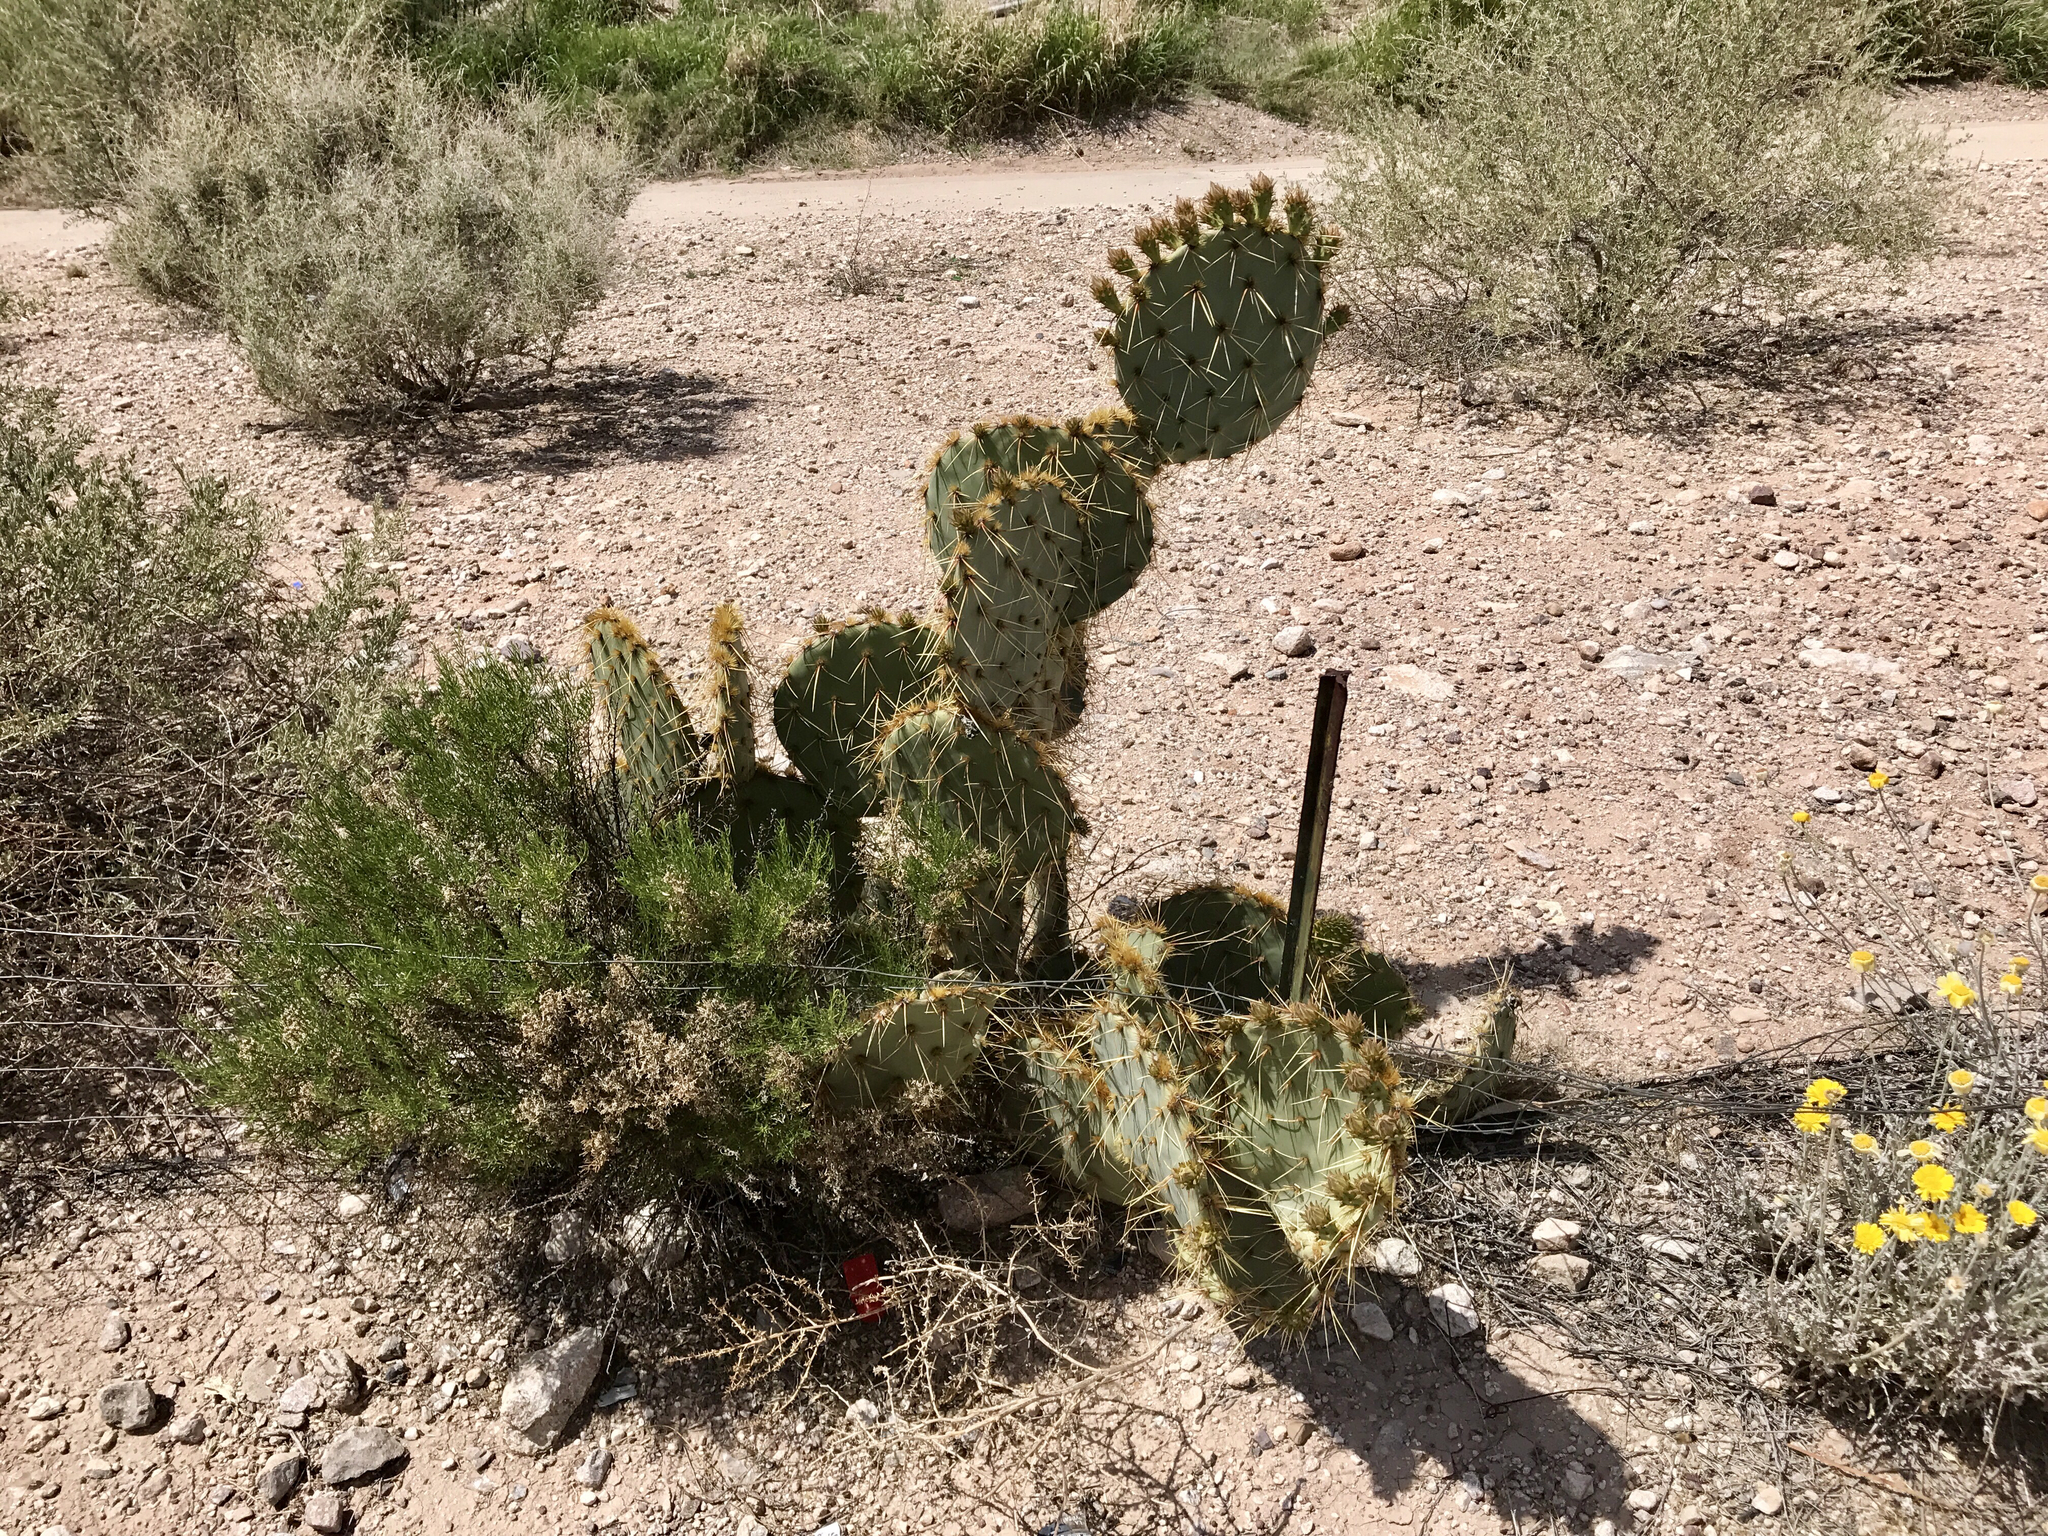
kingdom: Plantae
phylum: Tracheophyta
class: Magnoliopsida
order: Caryophyllales
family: Cactaceae
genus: Opuntia
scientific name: Opuntia engelmannii
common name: Cactus-apple
